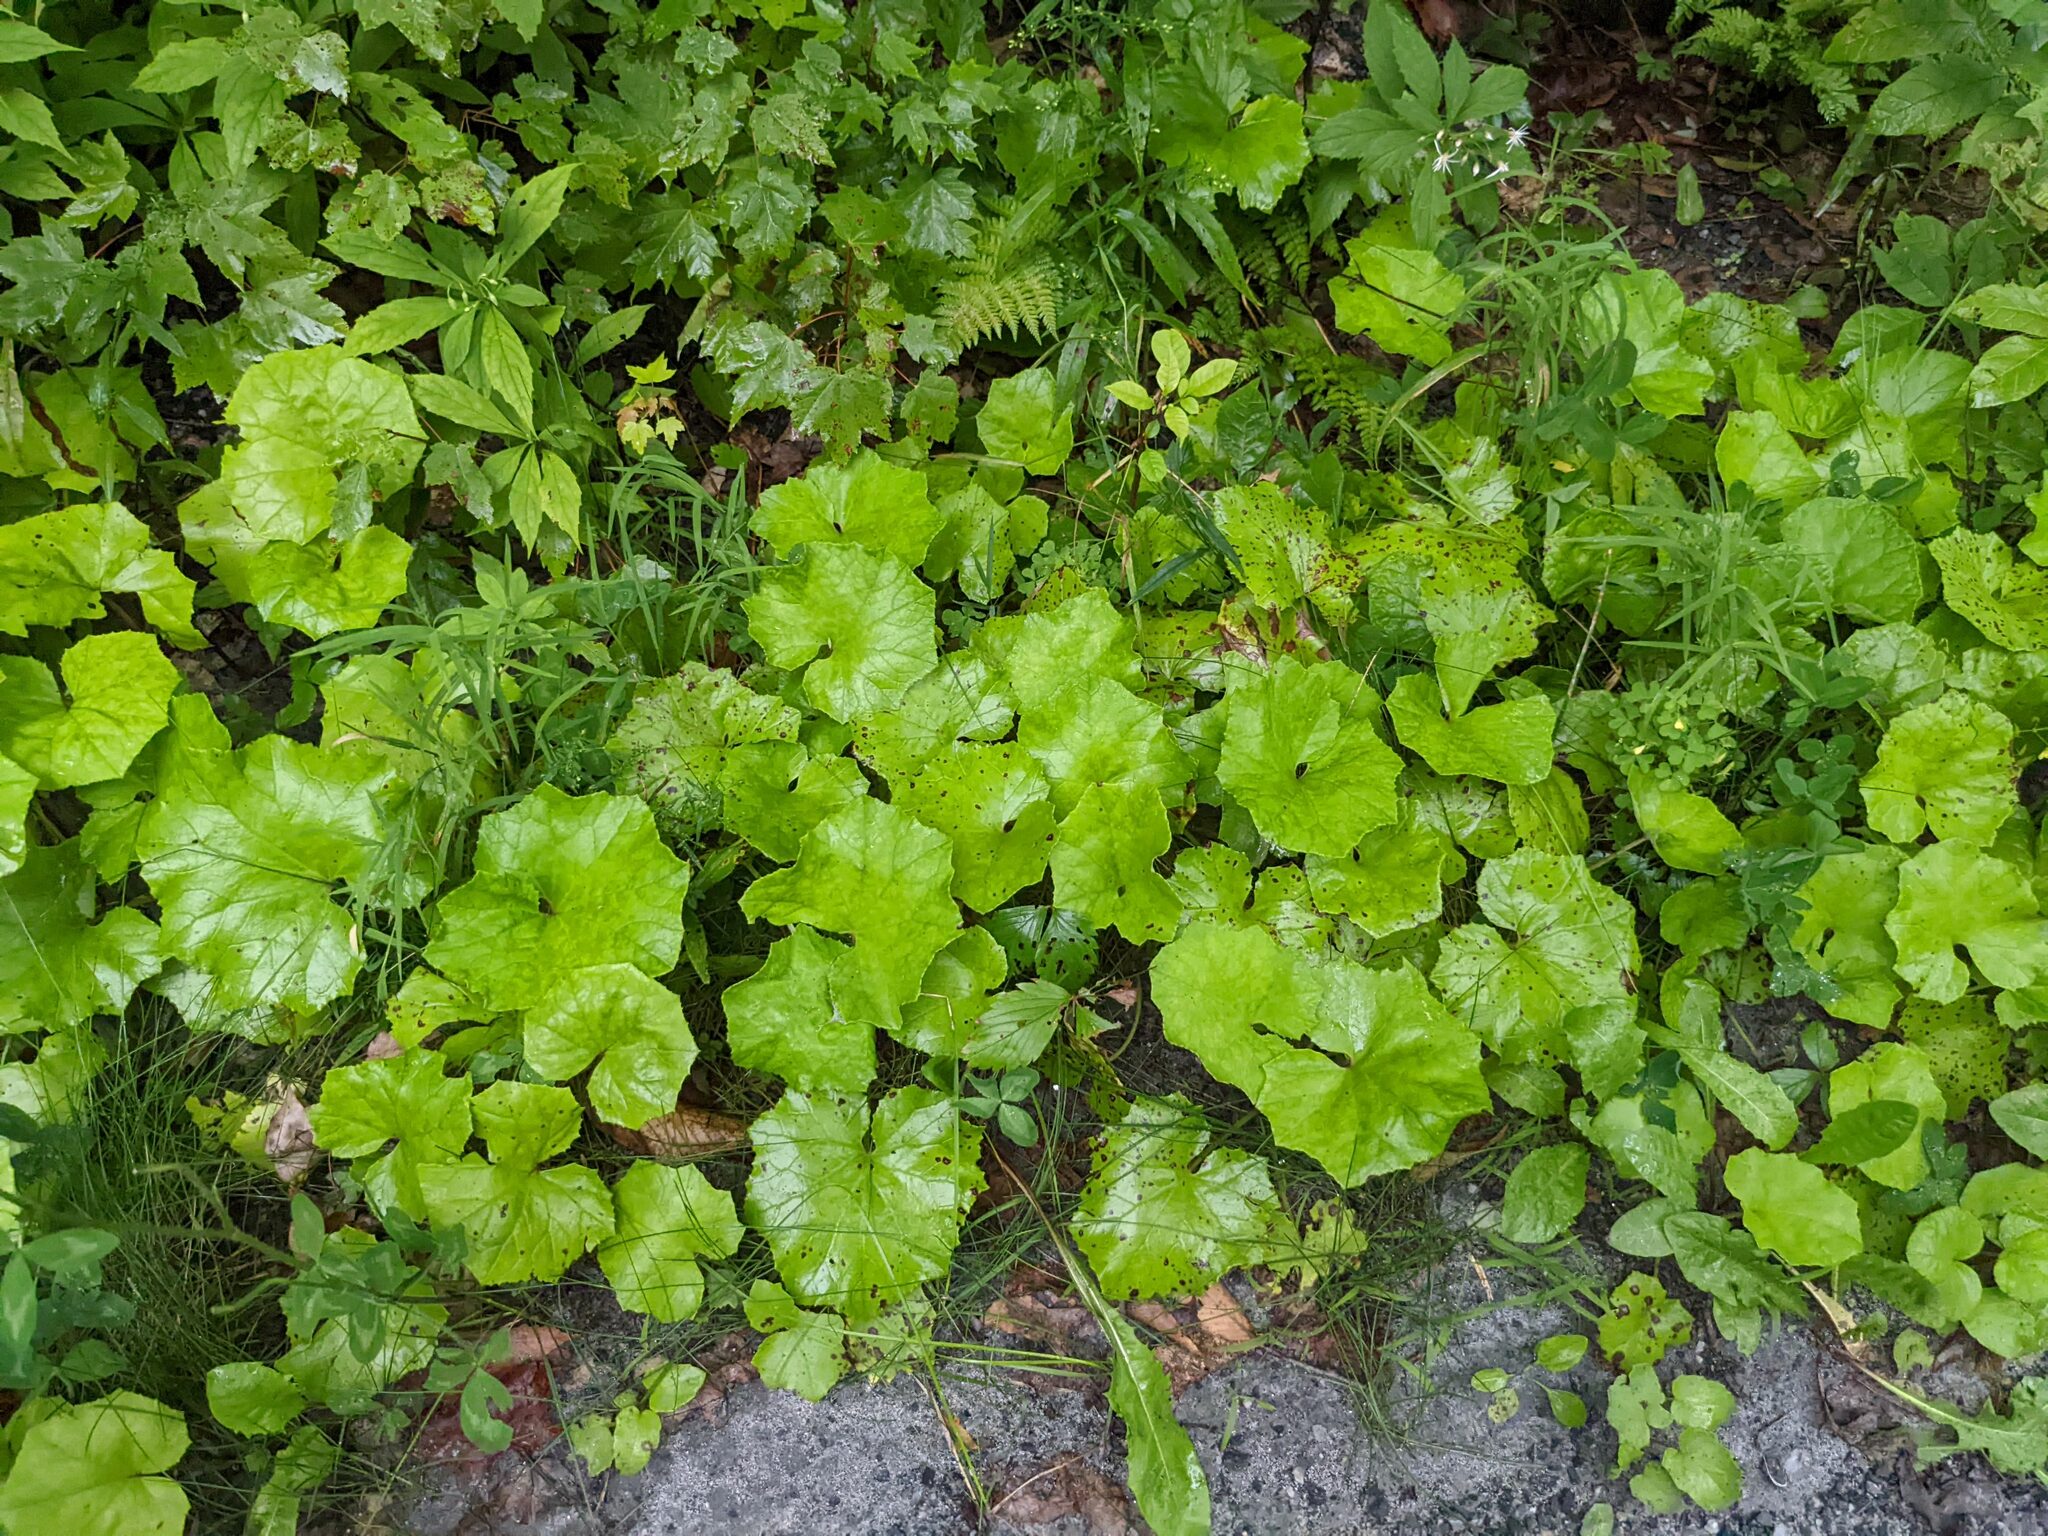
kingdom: Plantae
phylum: Tracheophyta
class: Magnoliopsida
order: Asterales
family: Asteraceae
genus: Tussilago
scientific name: Tussilago farfara
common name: Coltsfoot
